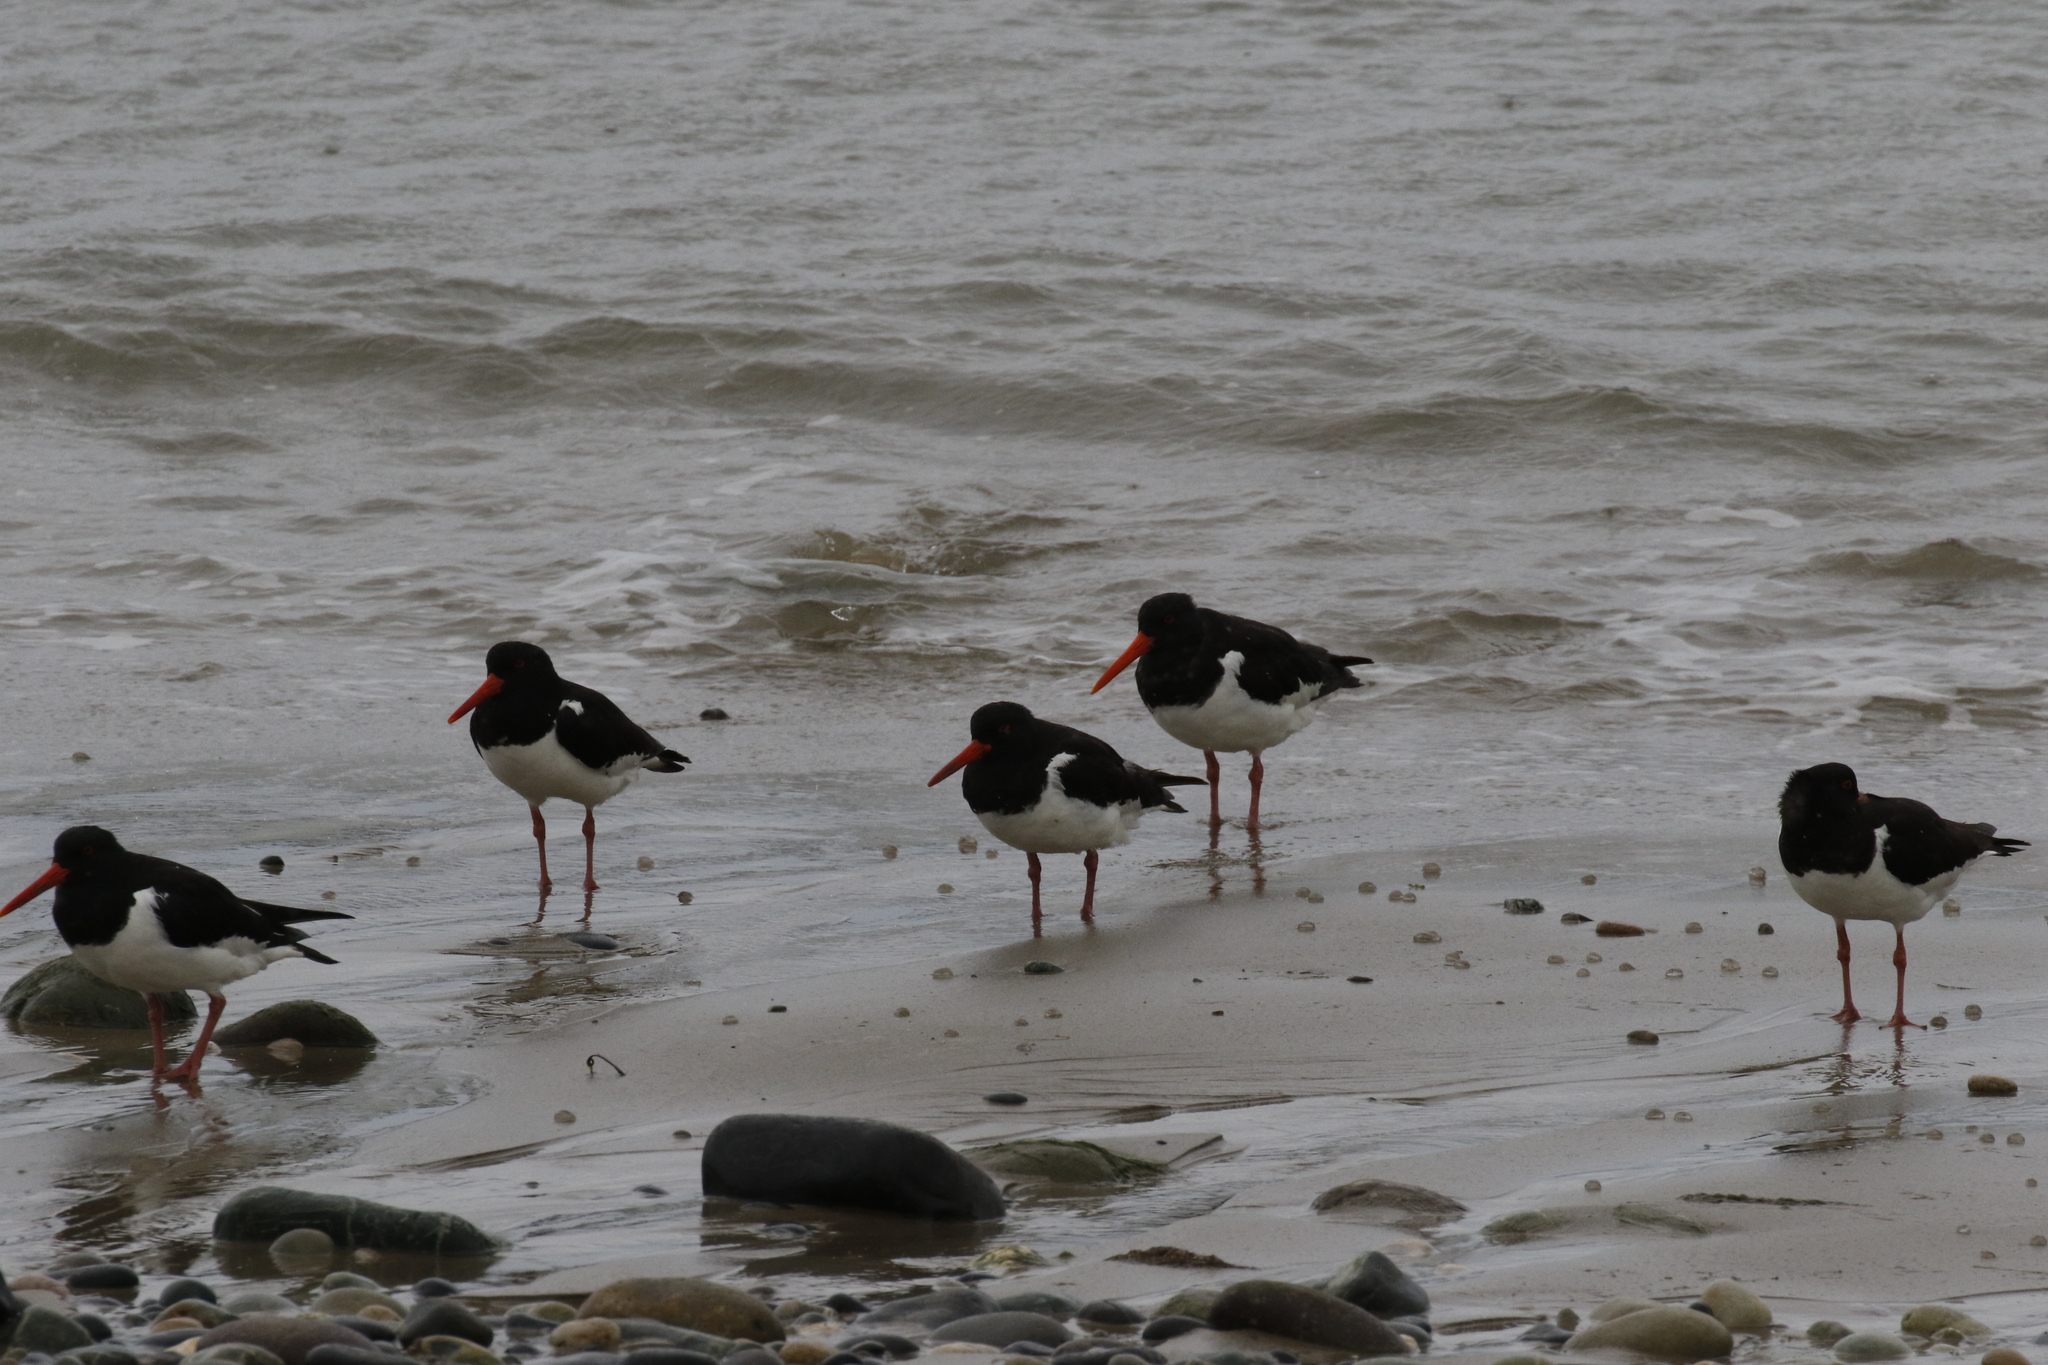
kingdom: Animalia
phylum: Chordata
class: Aves
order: Charadriiformes
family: Haematopodidae
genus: Haematopus
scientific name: Haematopus ostralegus
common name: Eurasian oystercatcher
